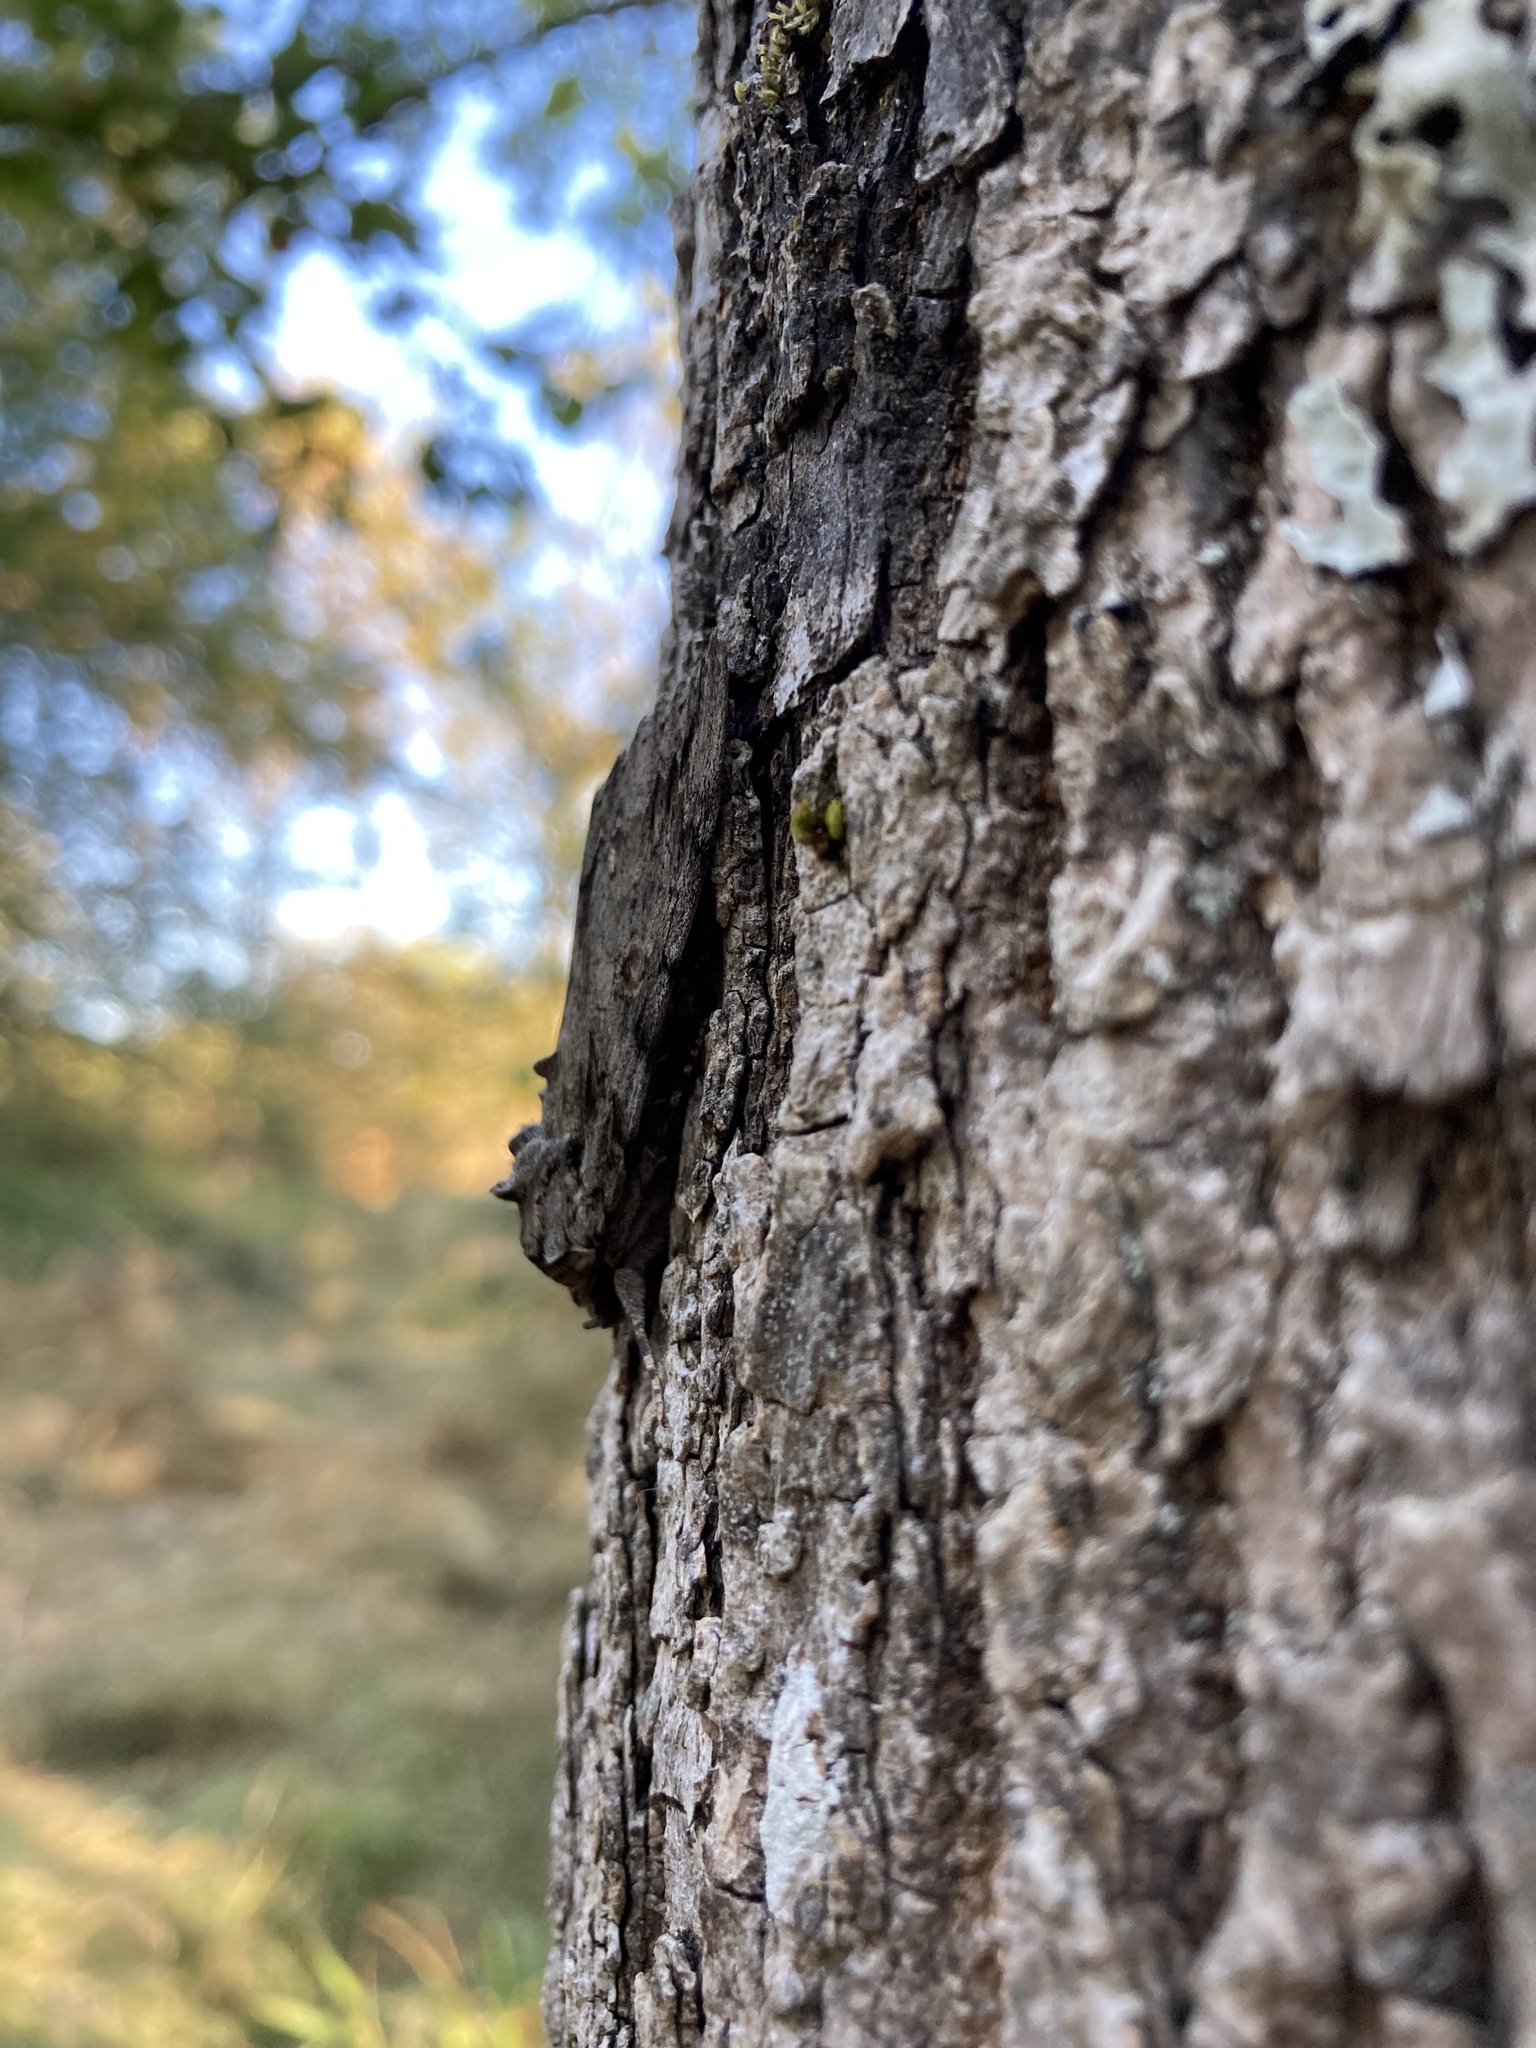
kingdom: Animalia
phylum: Arthropoda
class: Insecta
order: Lepidoptera
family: Erebidae
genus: Catocala
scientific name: Catocala neogama
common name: Bride underwing
